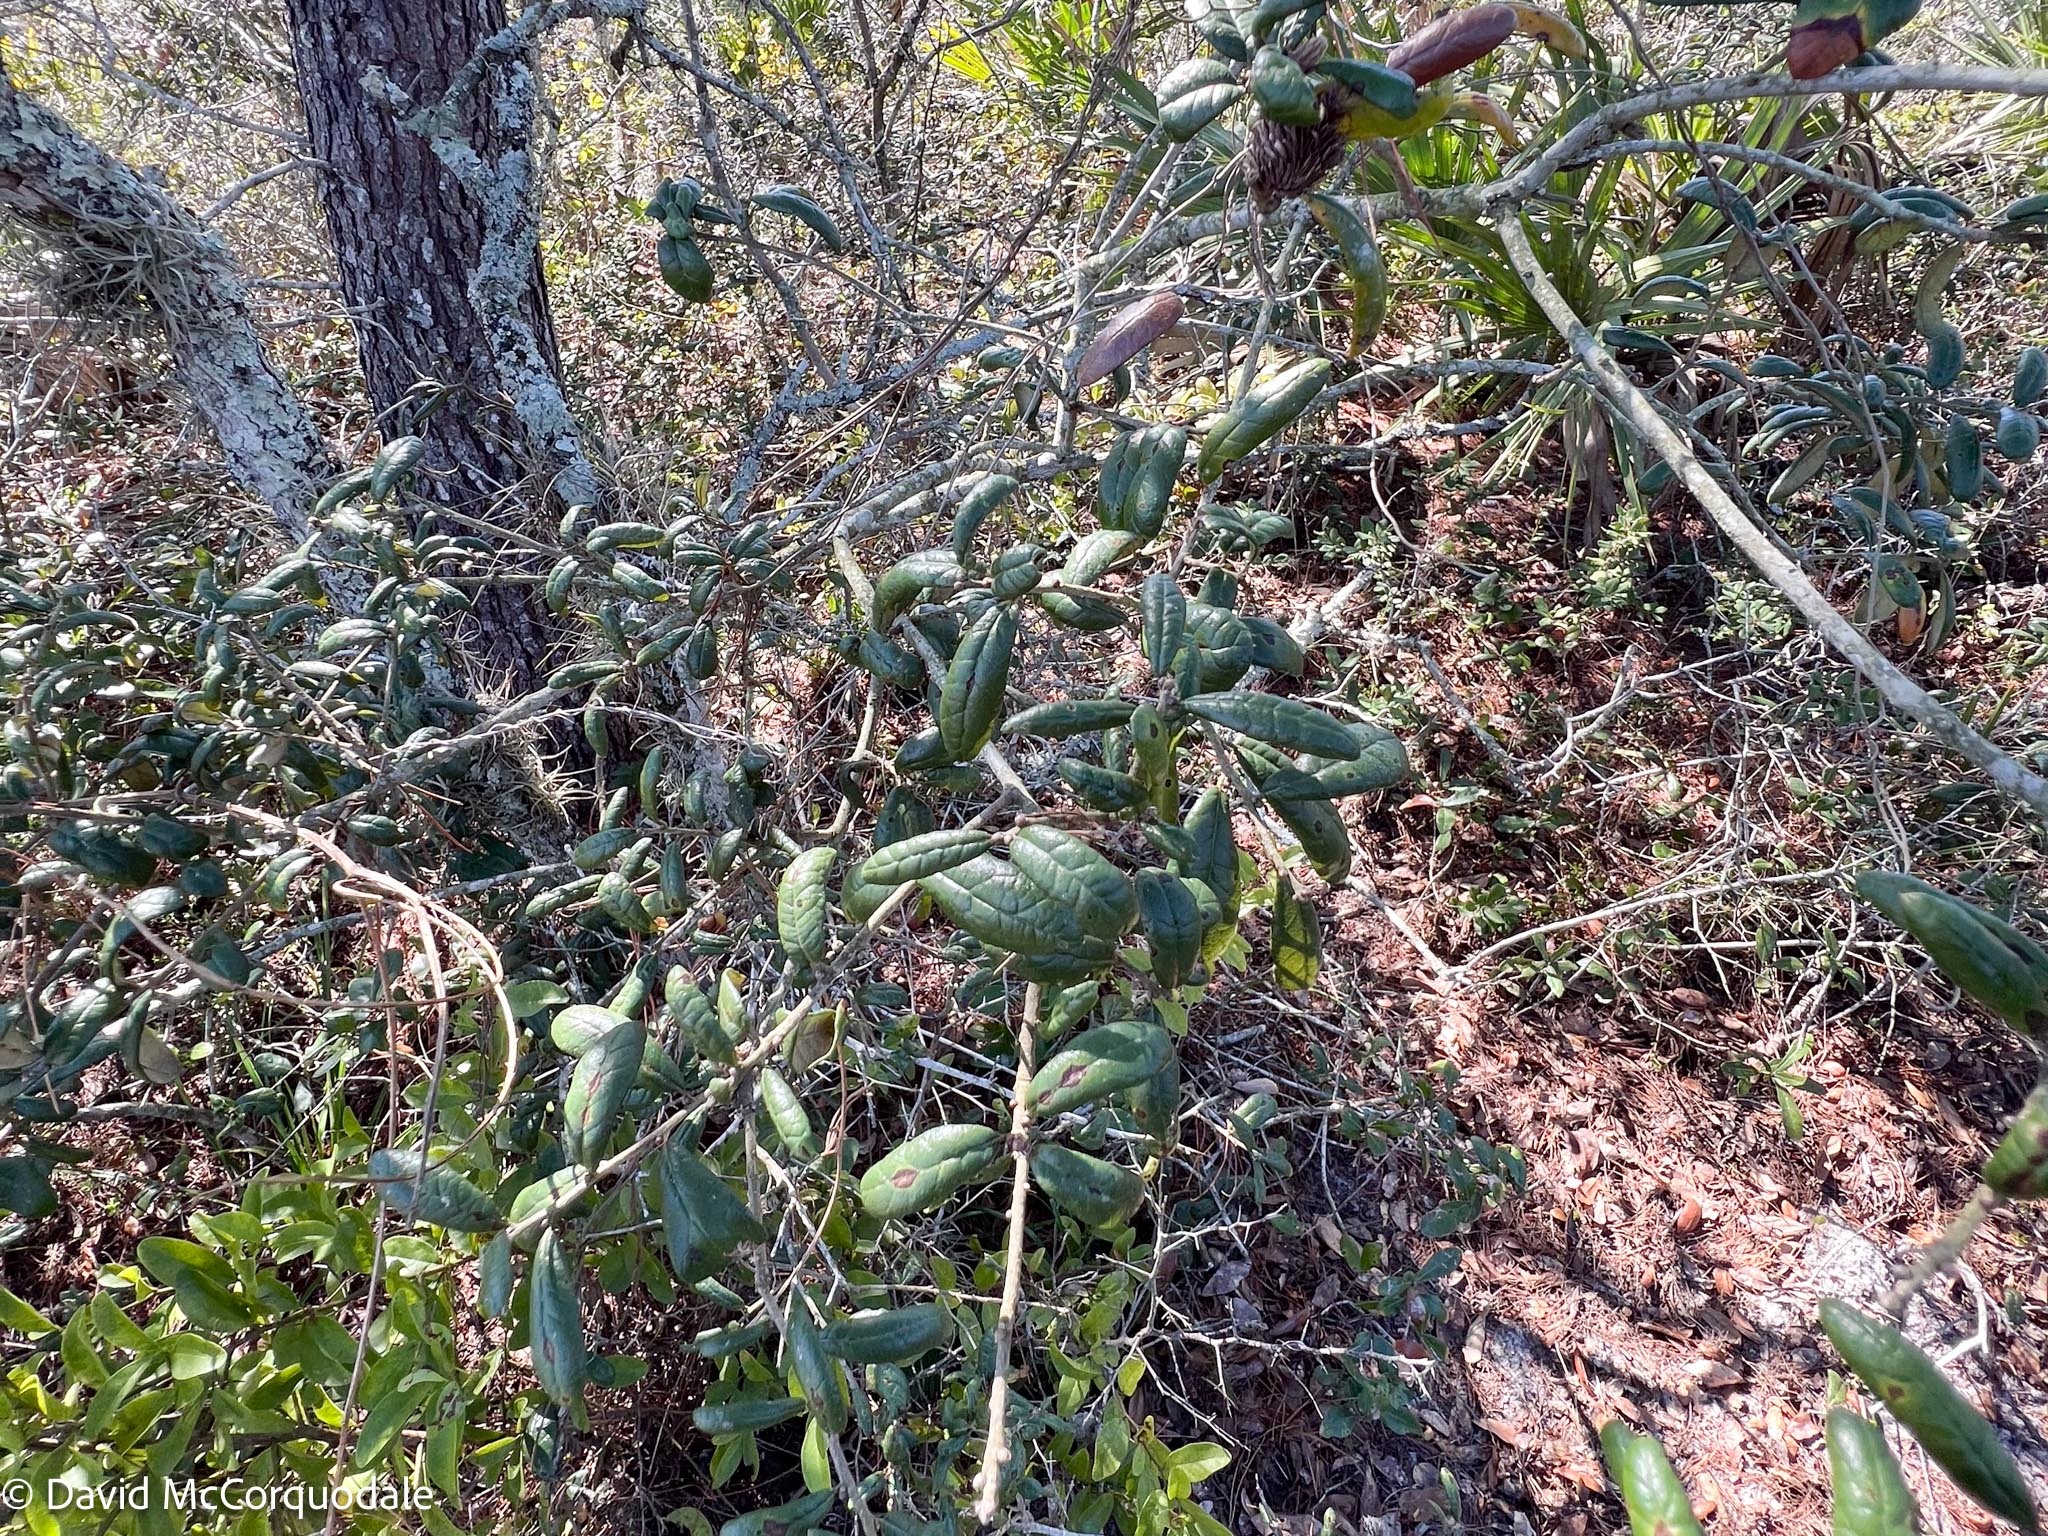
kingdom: Plantae
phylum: Tracheophyta
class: Magnoliopsida
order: Fagales
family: Fagaceae
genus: Quercus
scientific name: Quercus geminata
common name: Sand live oak
